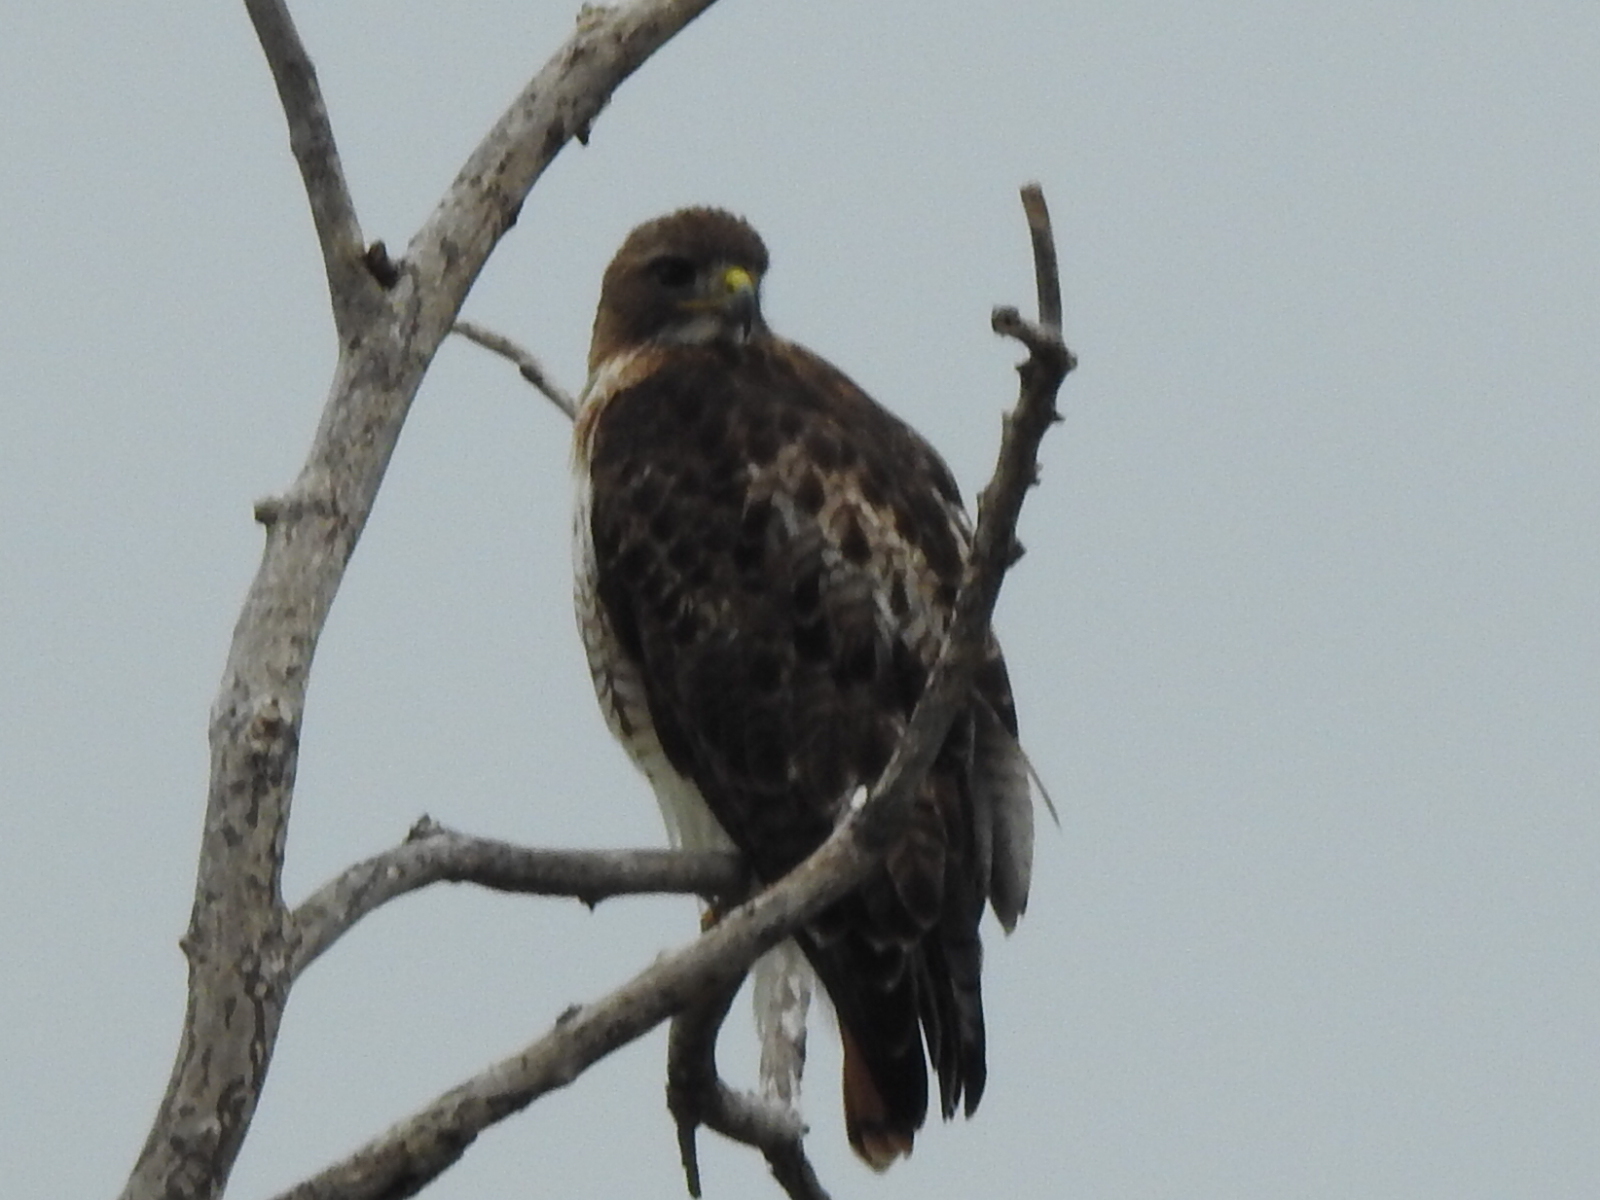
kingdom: Animalia
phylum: Chordata
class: Aves
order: Accipitriformes
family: Accipitridae
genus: Buteo
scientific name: Buteo jamaicensis
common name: Red-tailed hawk
